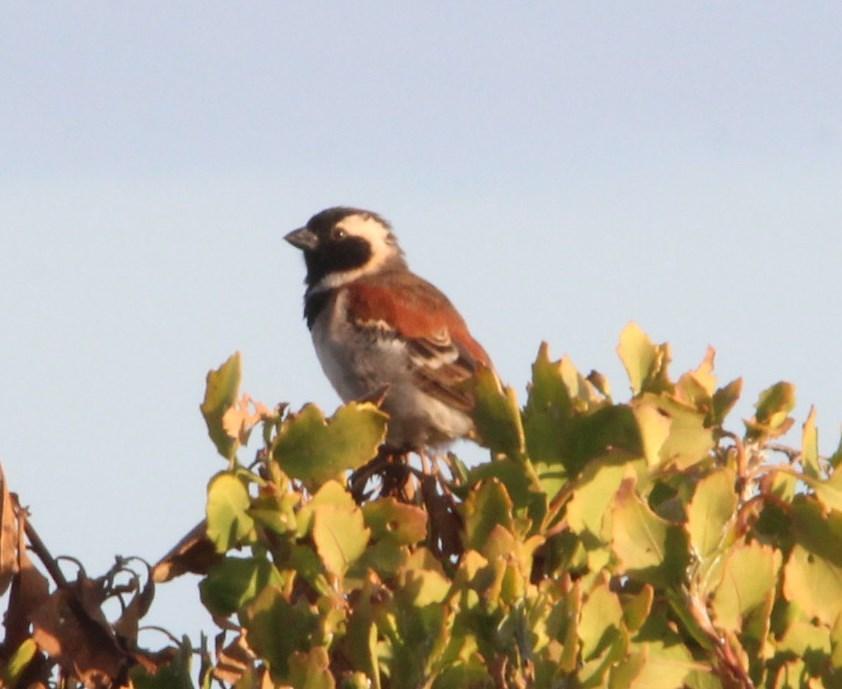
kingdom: Animalia
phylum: Chordata
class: Aves
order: Passeriformes
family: Passeridae
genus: Passer
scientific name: Passer melanurus
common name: Cape sparrow
